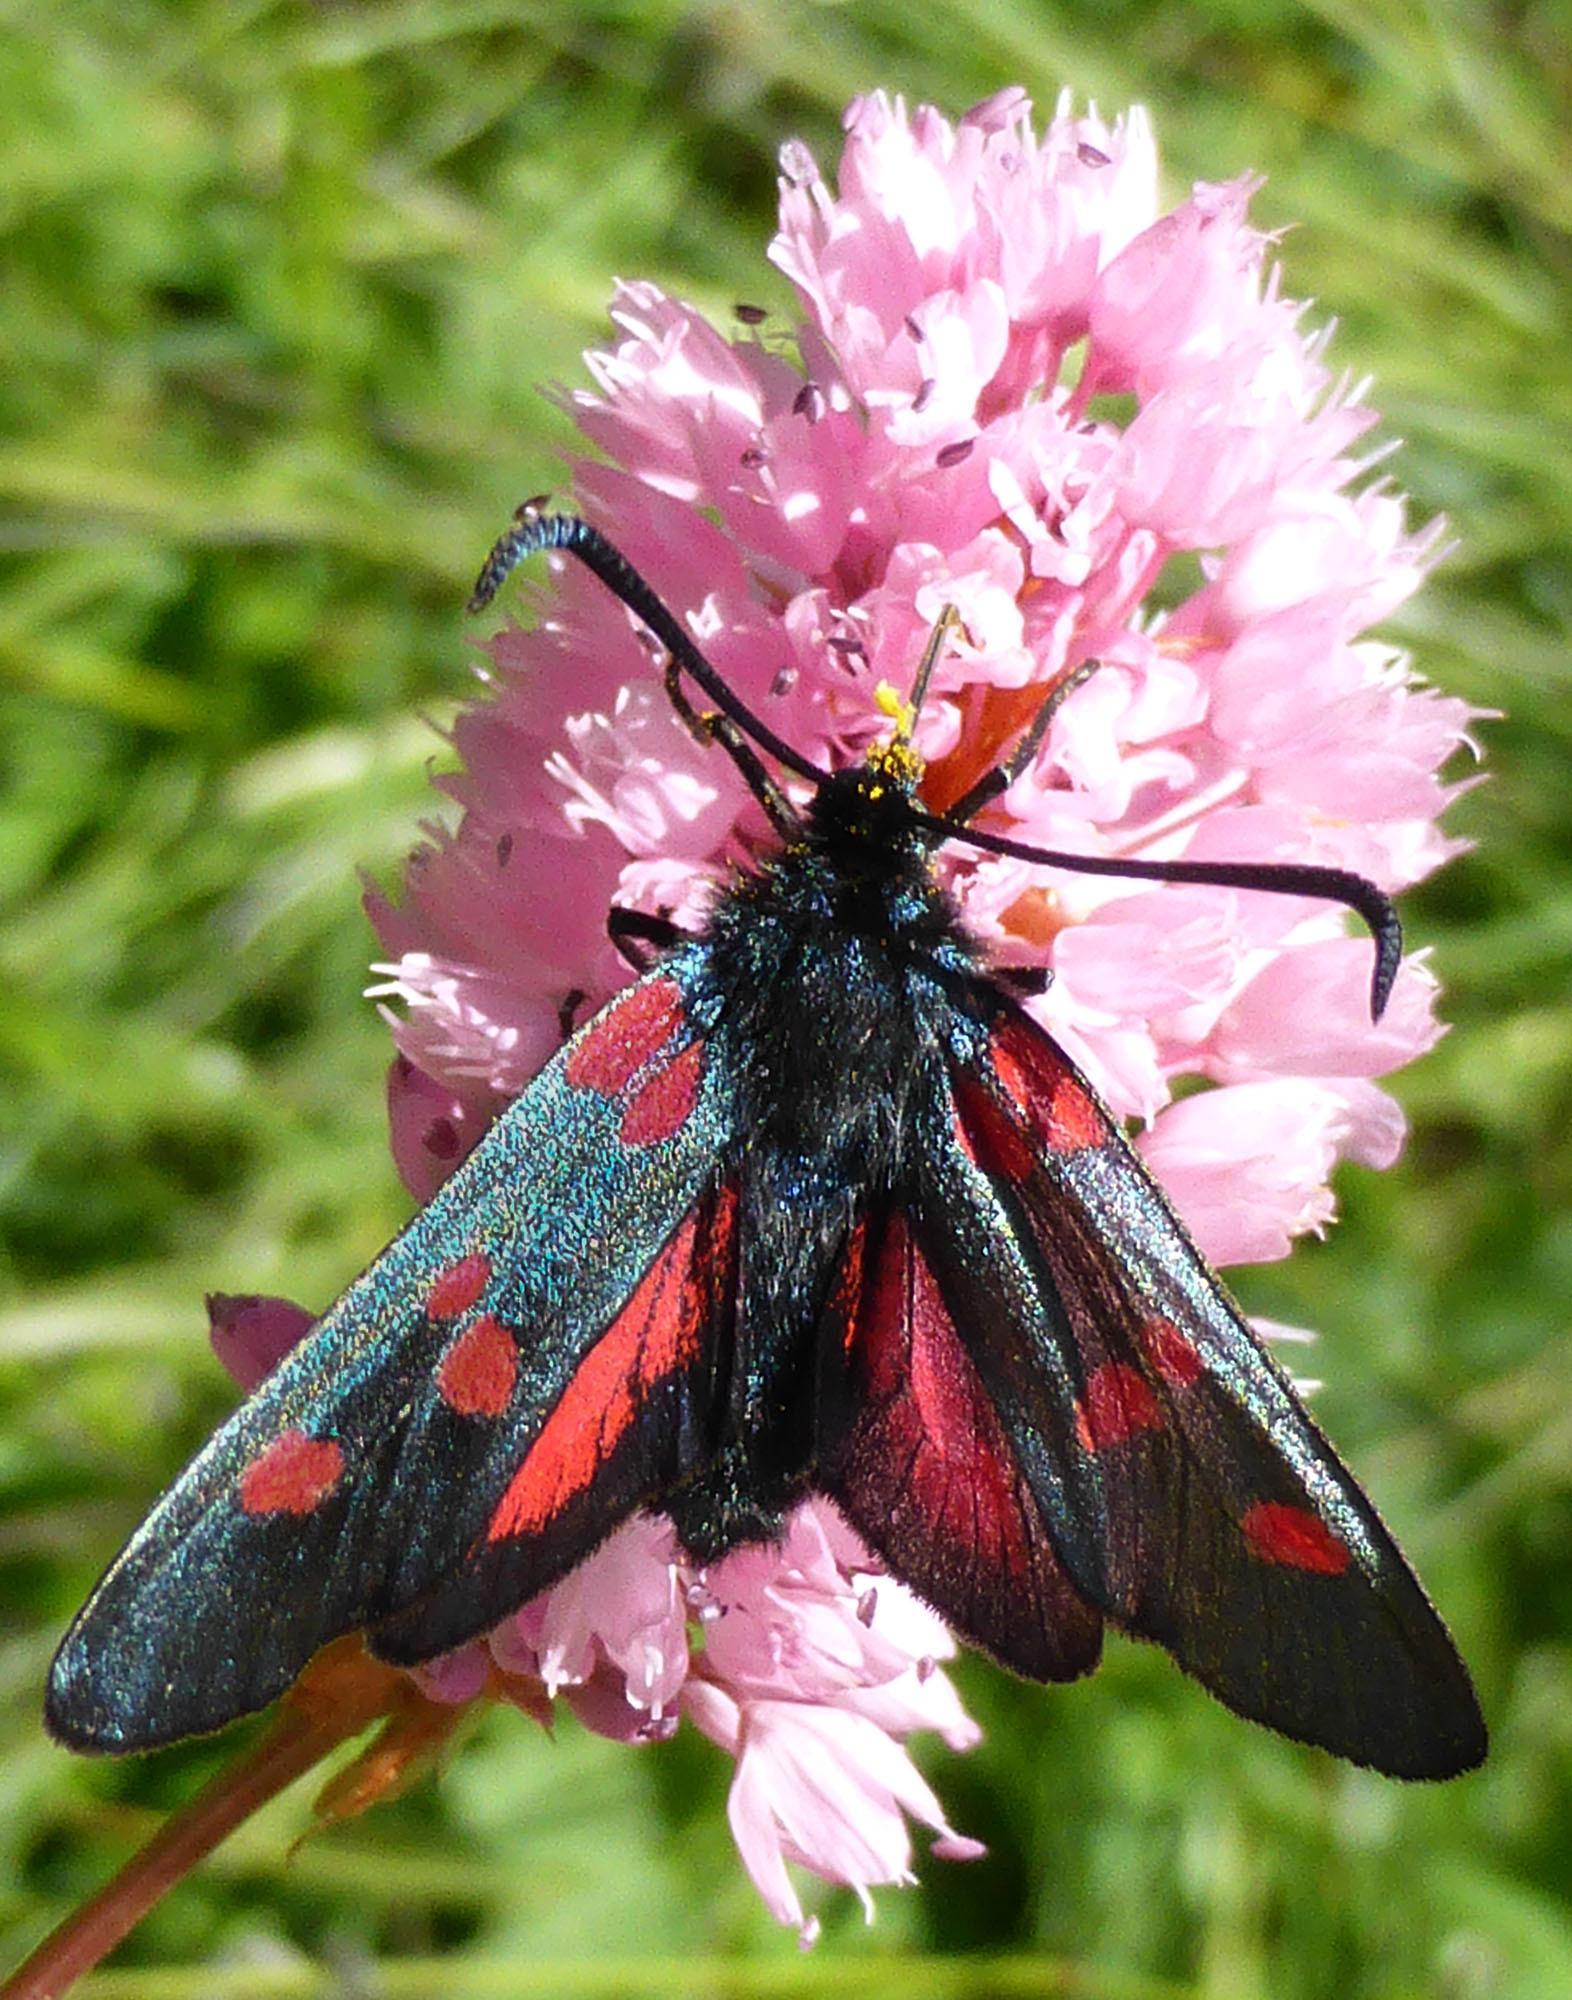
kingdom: Animalia
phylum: Arthropoda
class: Insecta
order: Lepidoptera
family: Zygaenidae
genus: Zygaena
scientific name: Zygaena filipendulae
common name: Six-spot burnet
